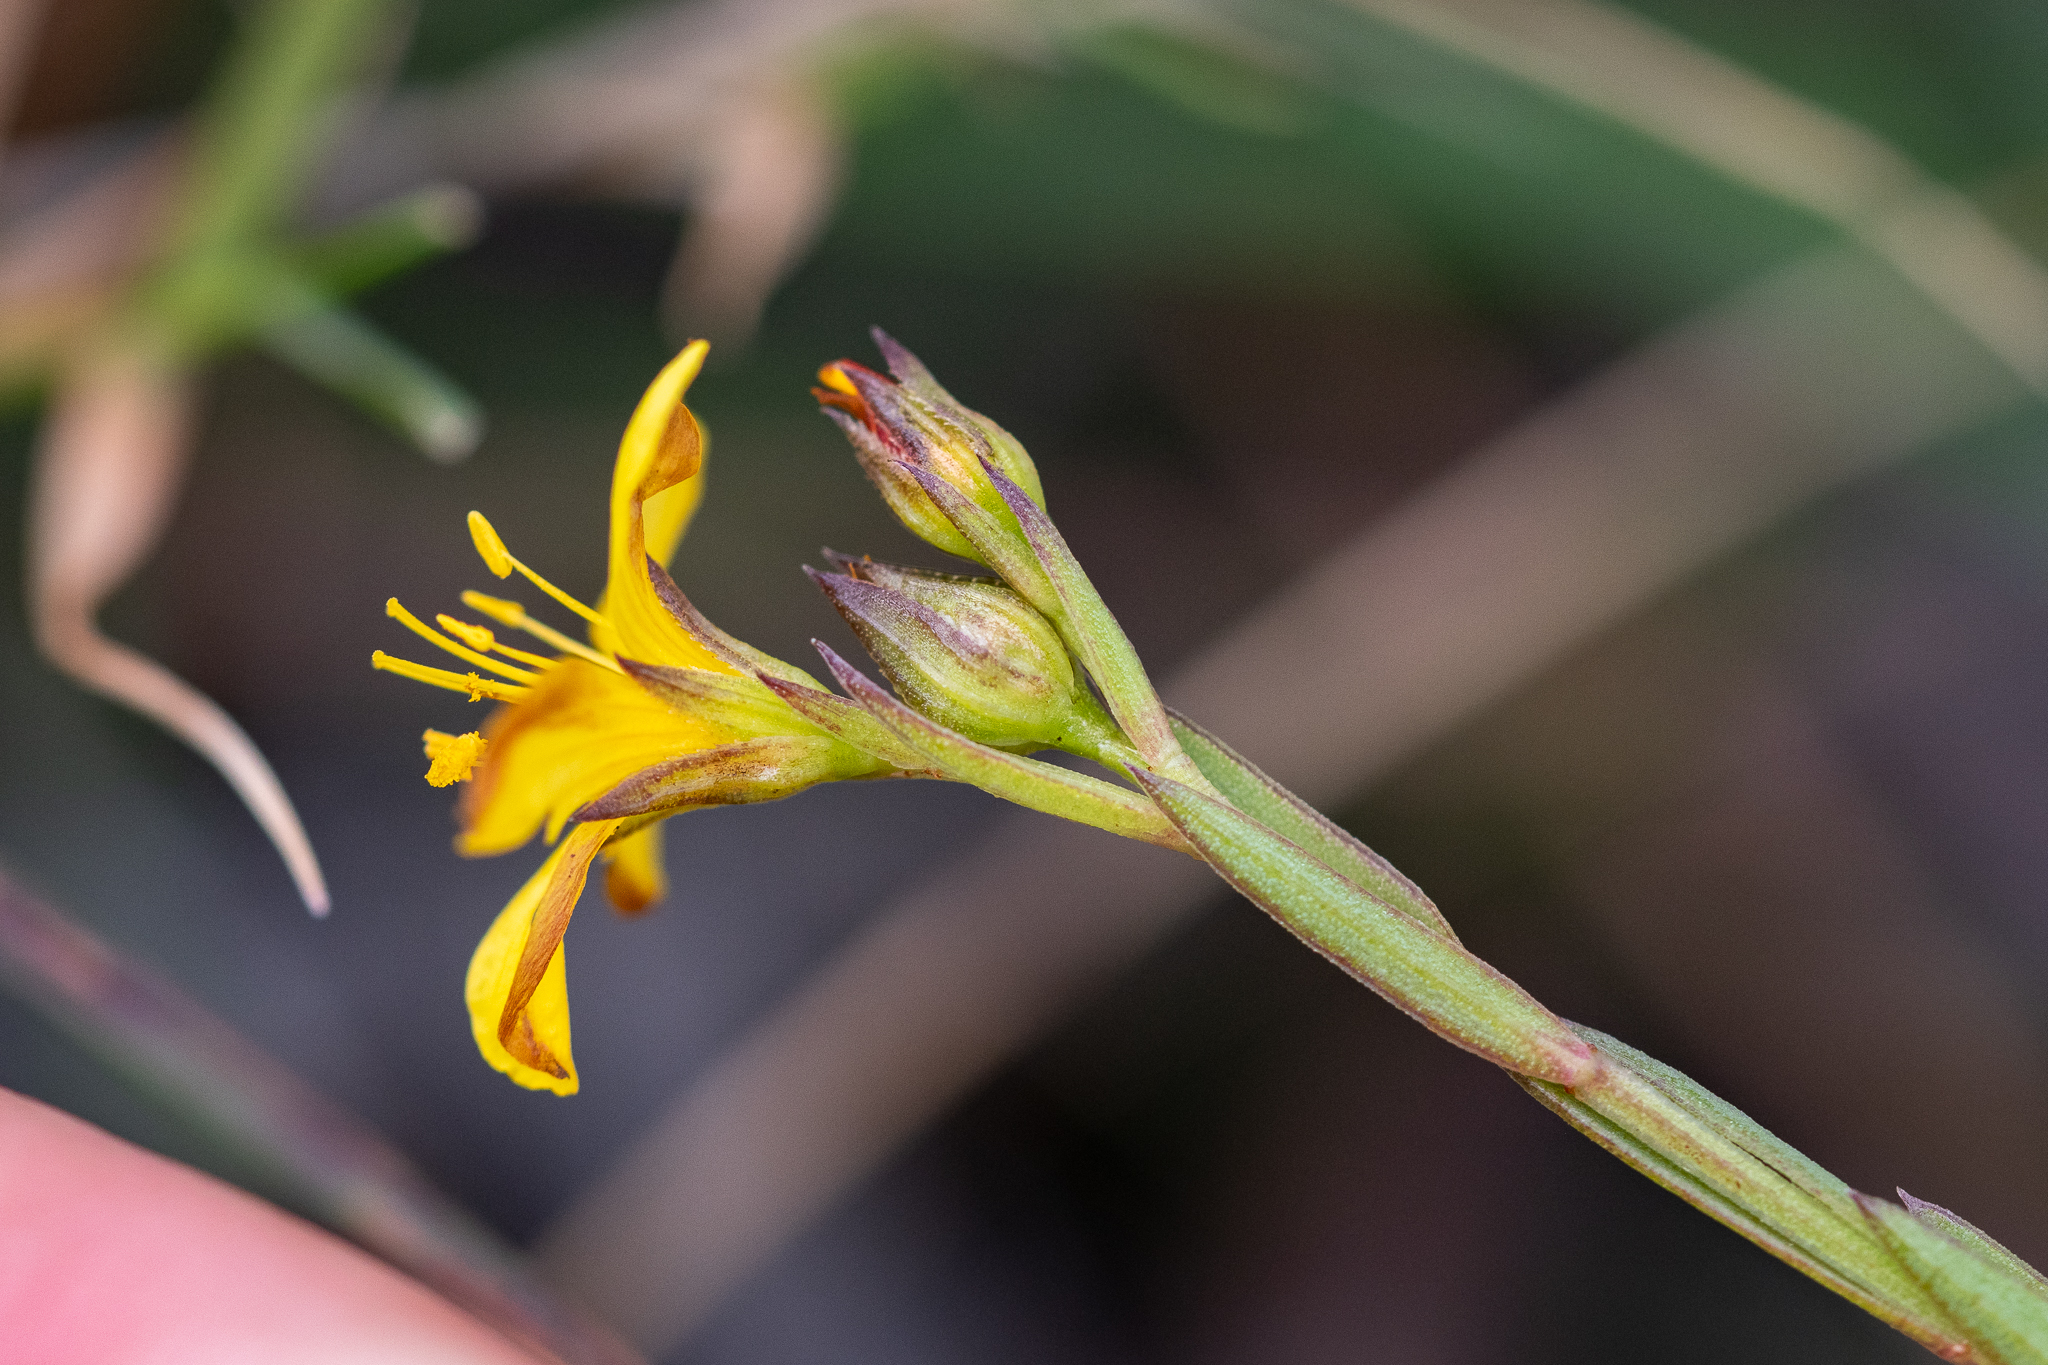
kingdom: Plantae
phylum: Tracheophyta
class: Magnoliopsida
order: Malpighiales
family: Linaceae
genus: Linum
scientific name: Linum africanum
